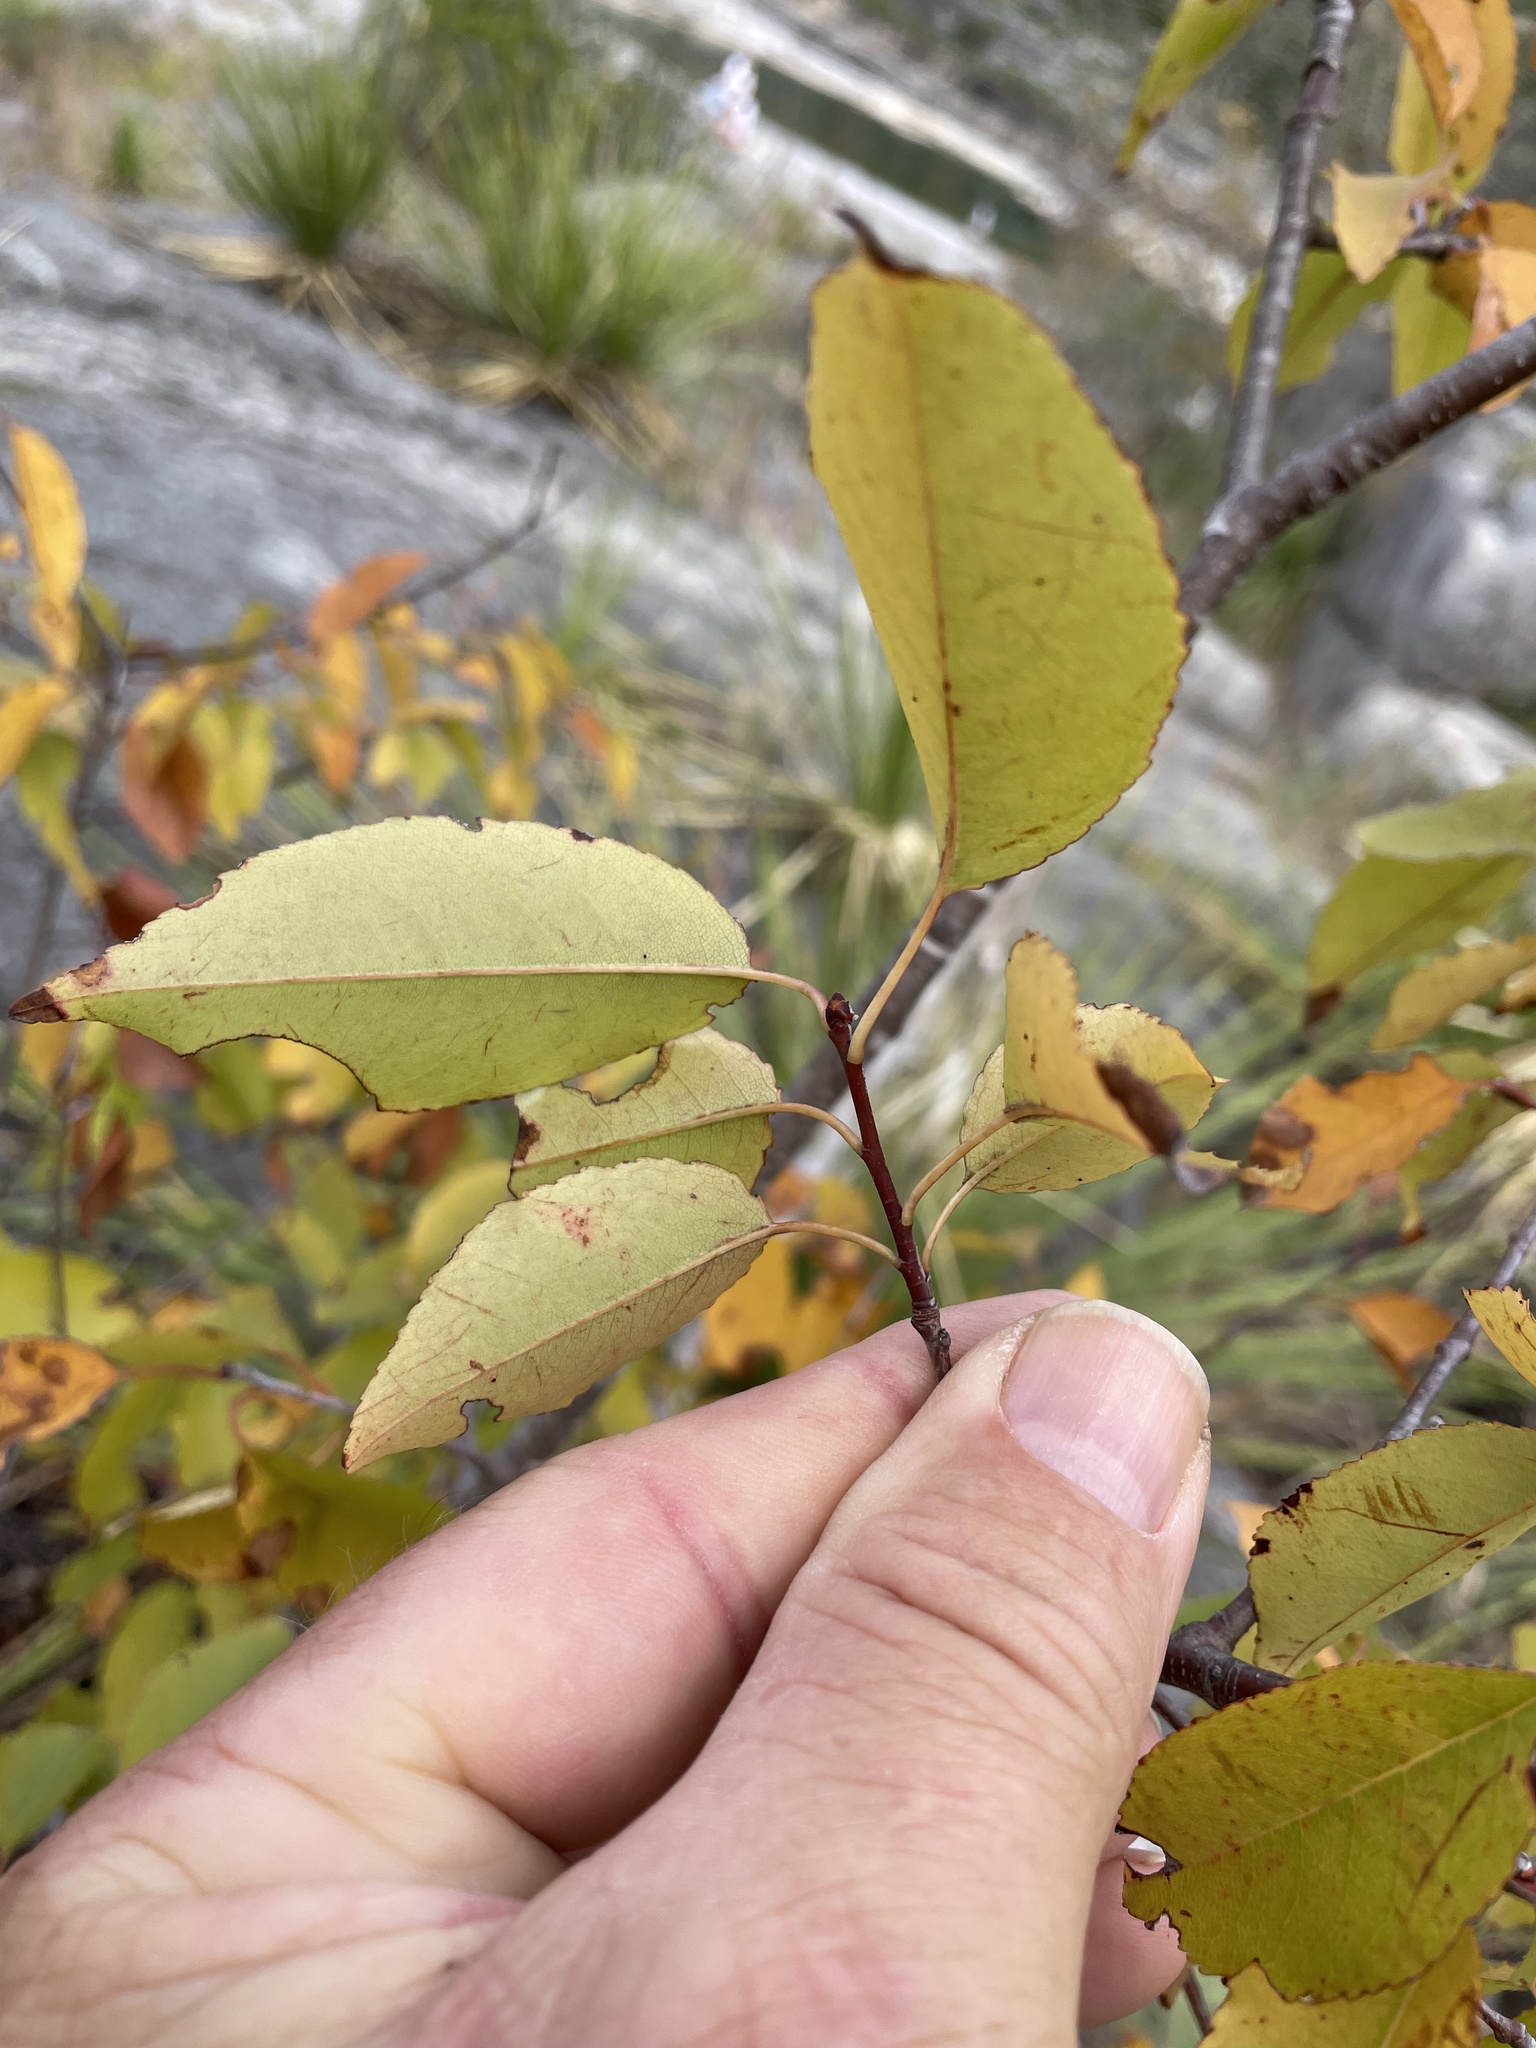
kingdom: Plantae
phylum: Tracheophyta
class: Magnoliopsida
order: Rosales
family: Rosaceae
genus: Prunus
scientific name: Prunus serotina
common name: Black cherry
